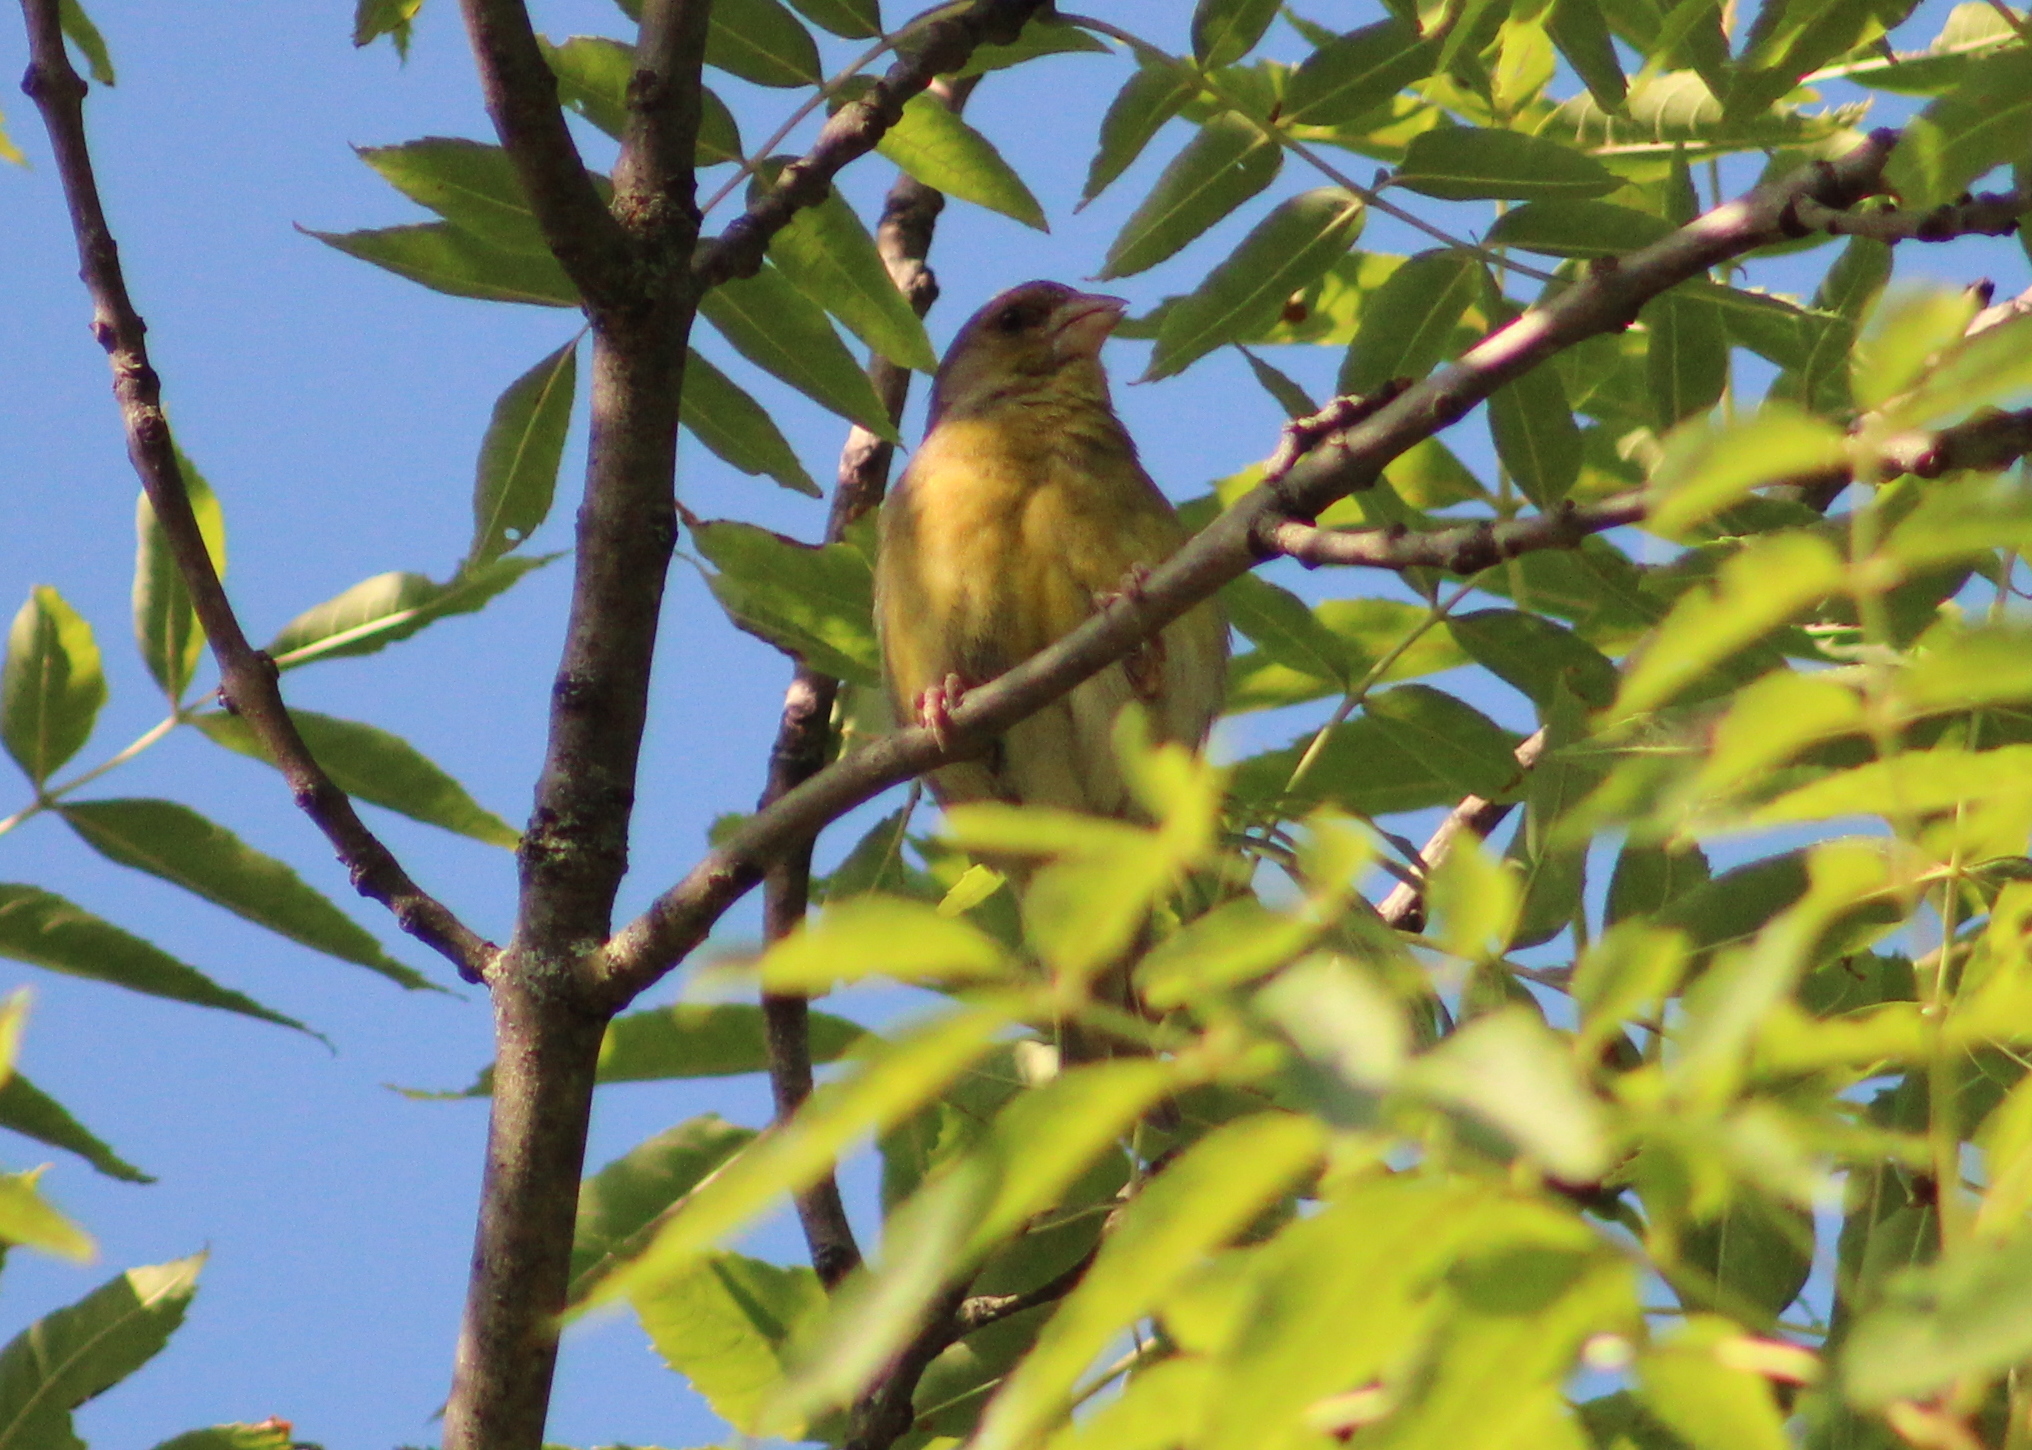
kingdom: Plantae
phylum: Tracheophyta
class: Liliopsida
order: Poales
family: Poaceae
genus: Chloris
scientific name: Chloris chloris
